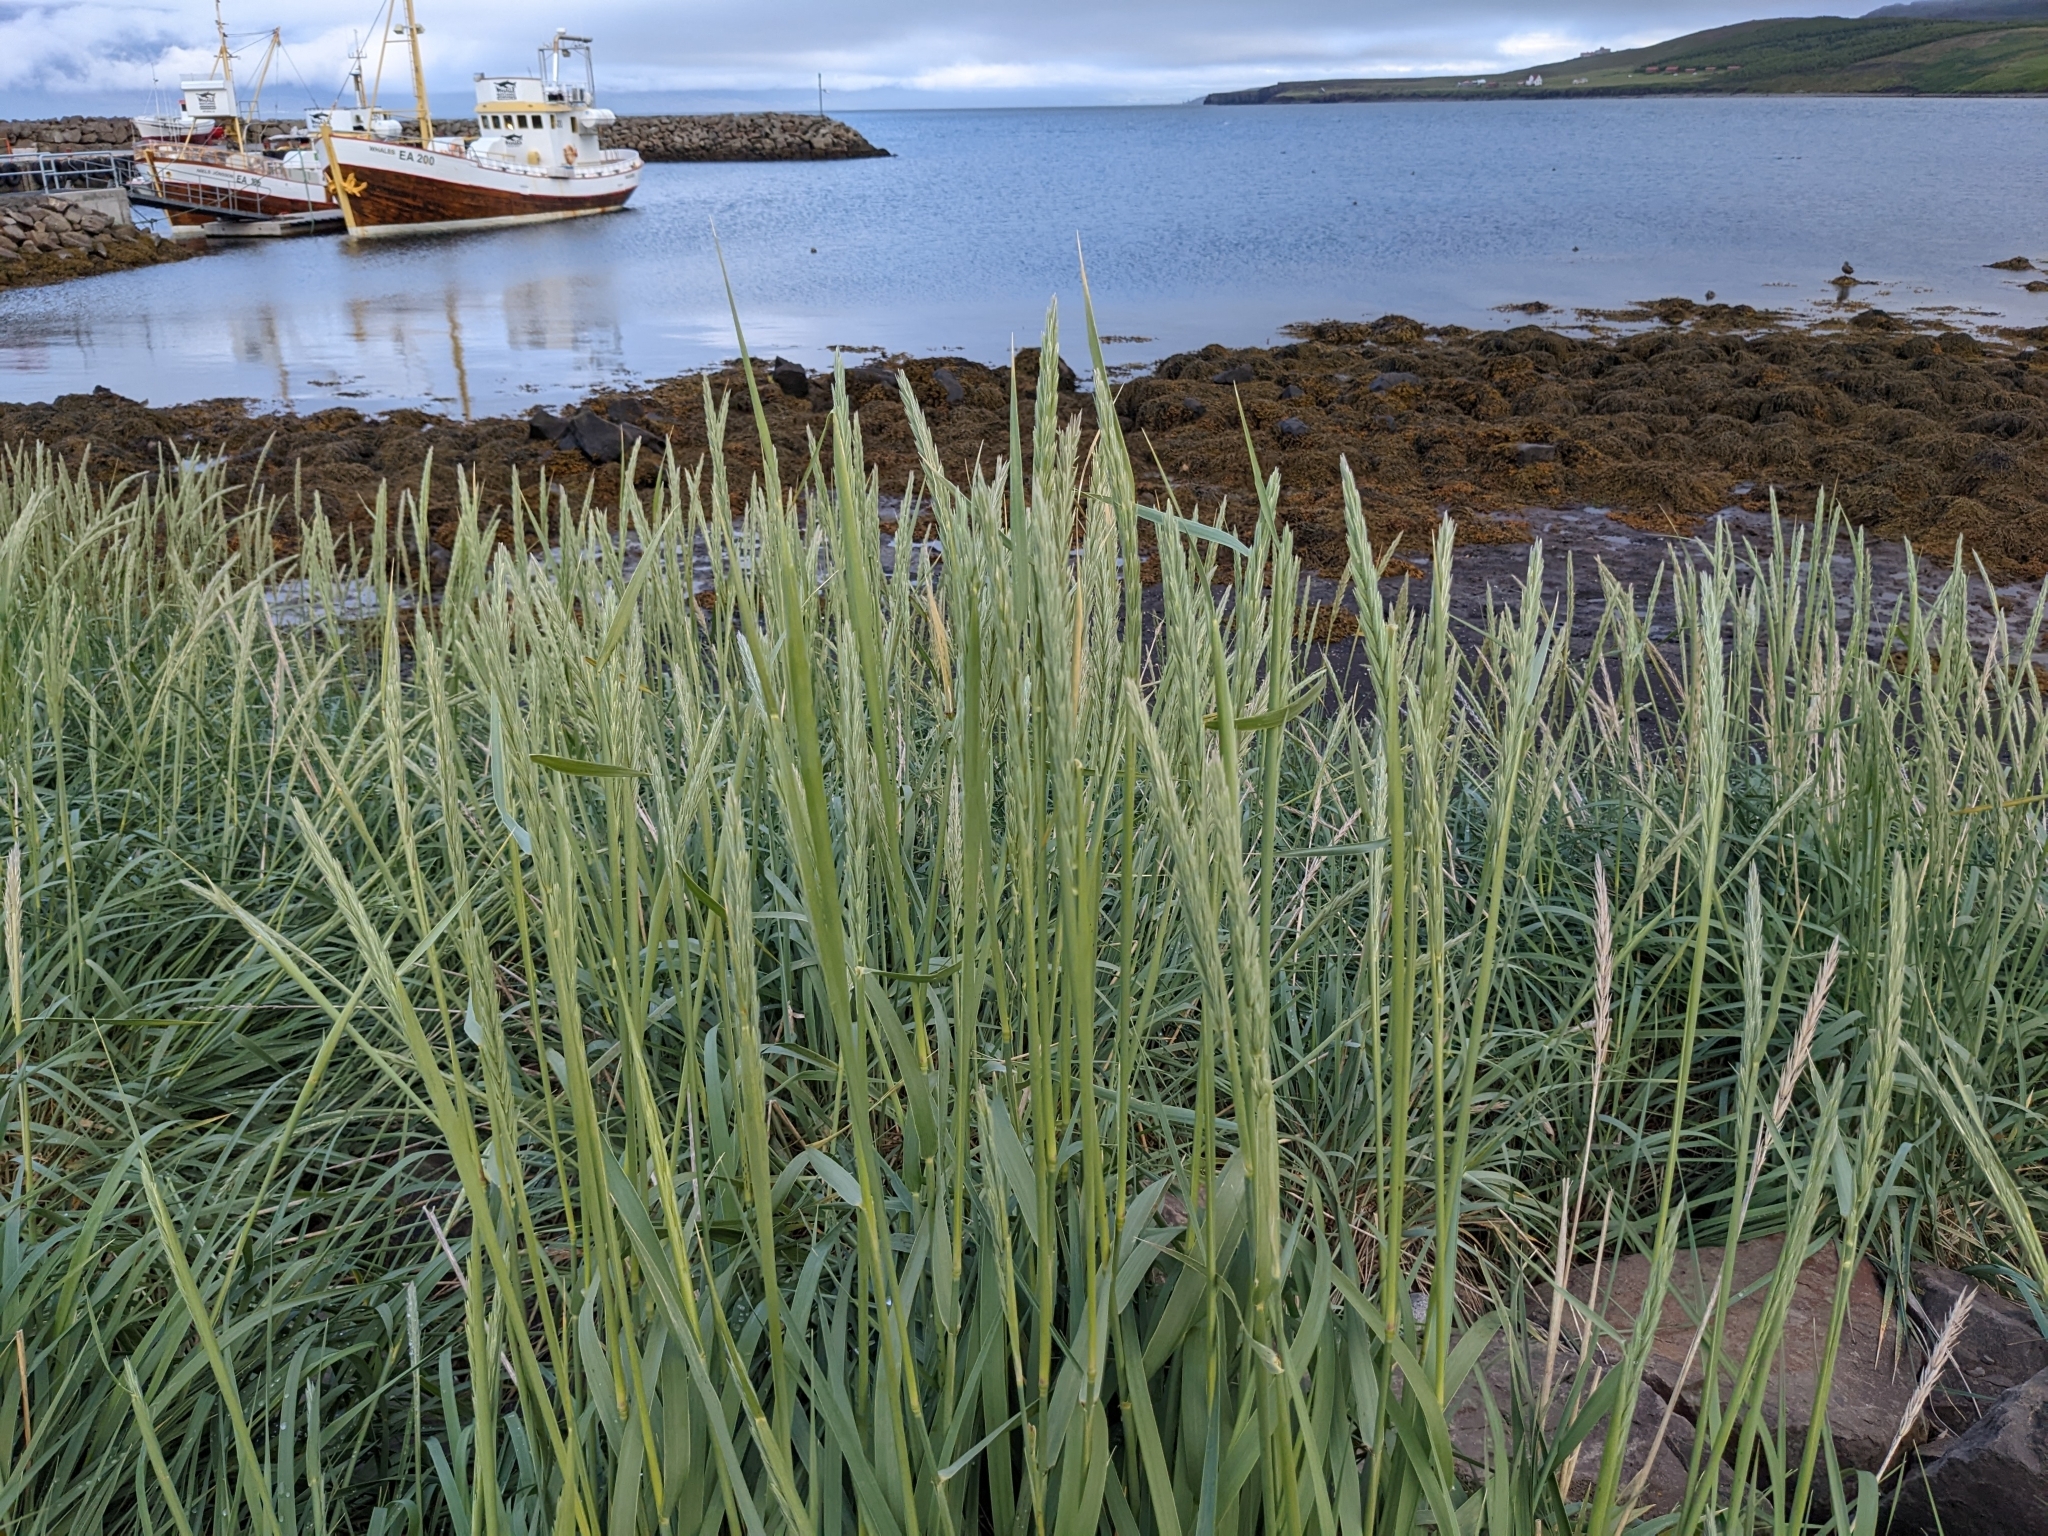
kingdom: Plantae
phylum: Tracheophyta
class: Liliopsida
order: Poales
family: Poaceae
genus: Leymus
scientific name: Leymus arenarius
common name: Lyme-grass
